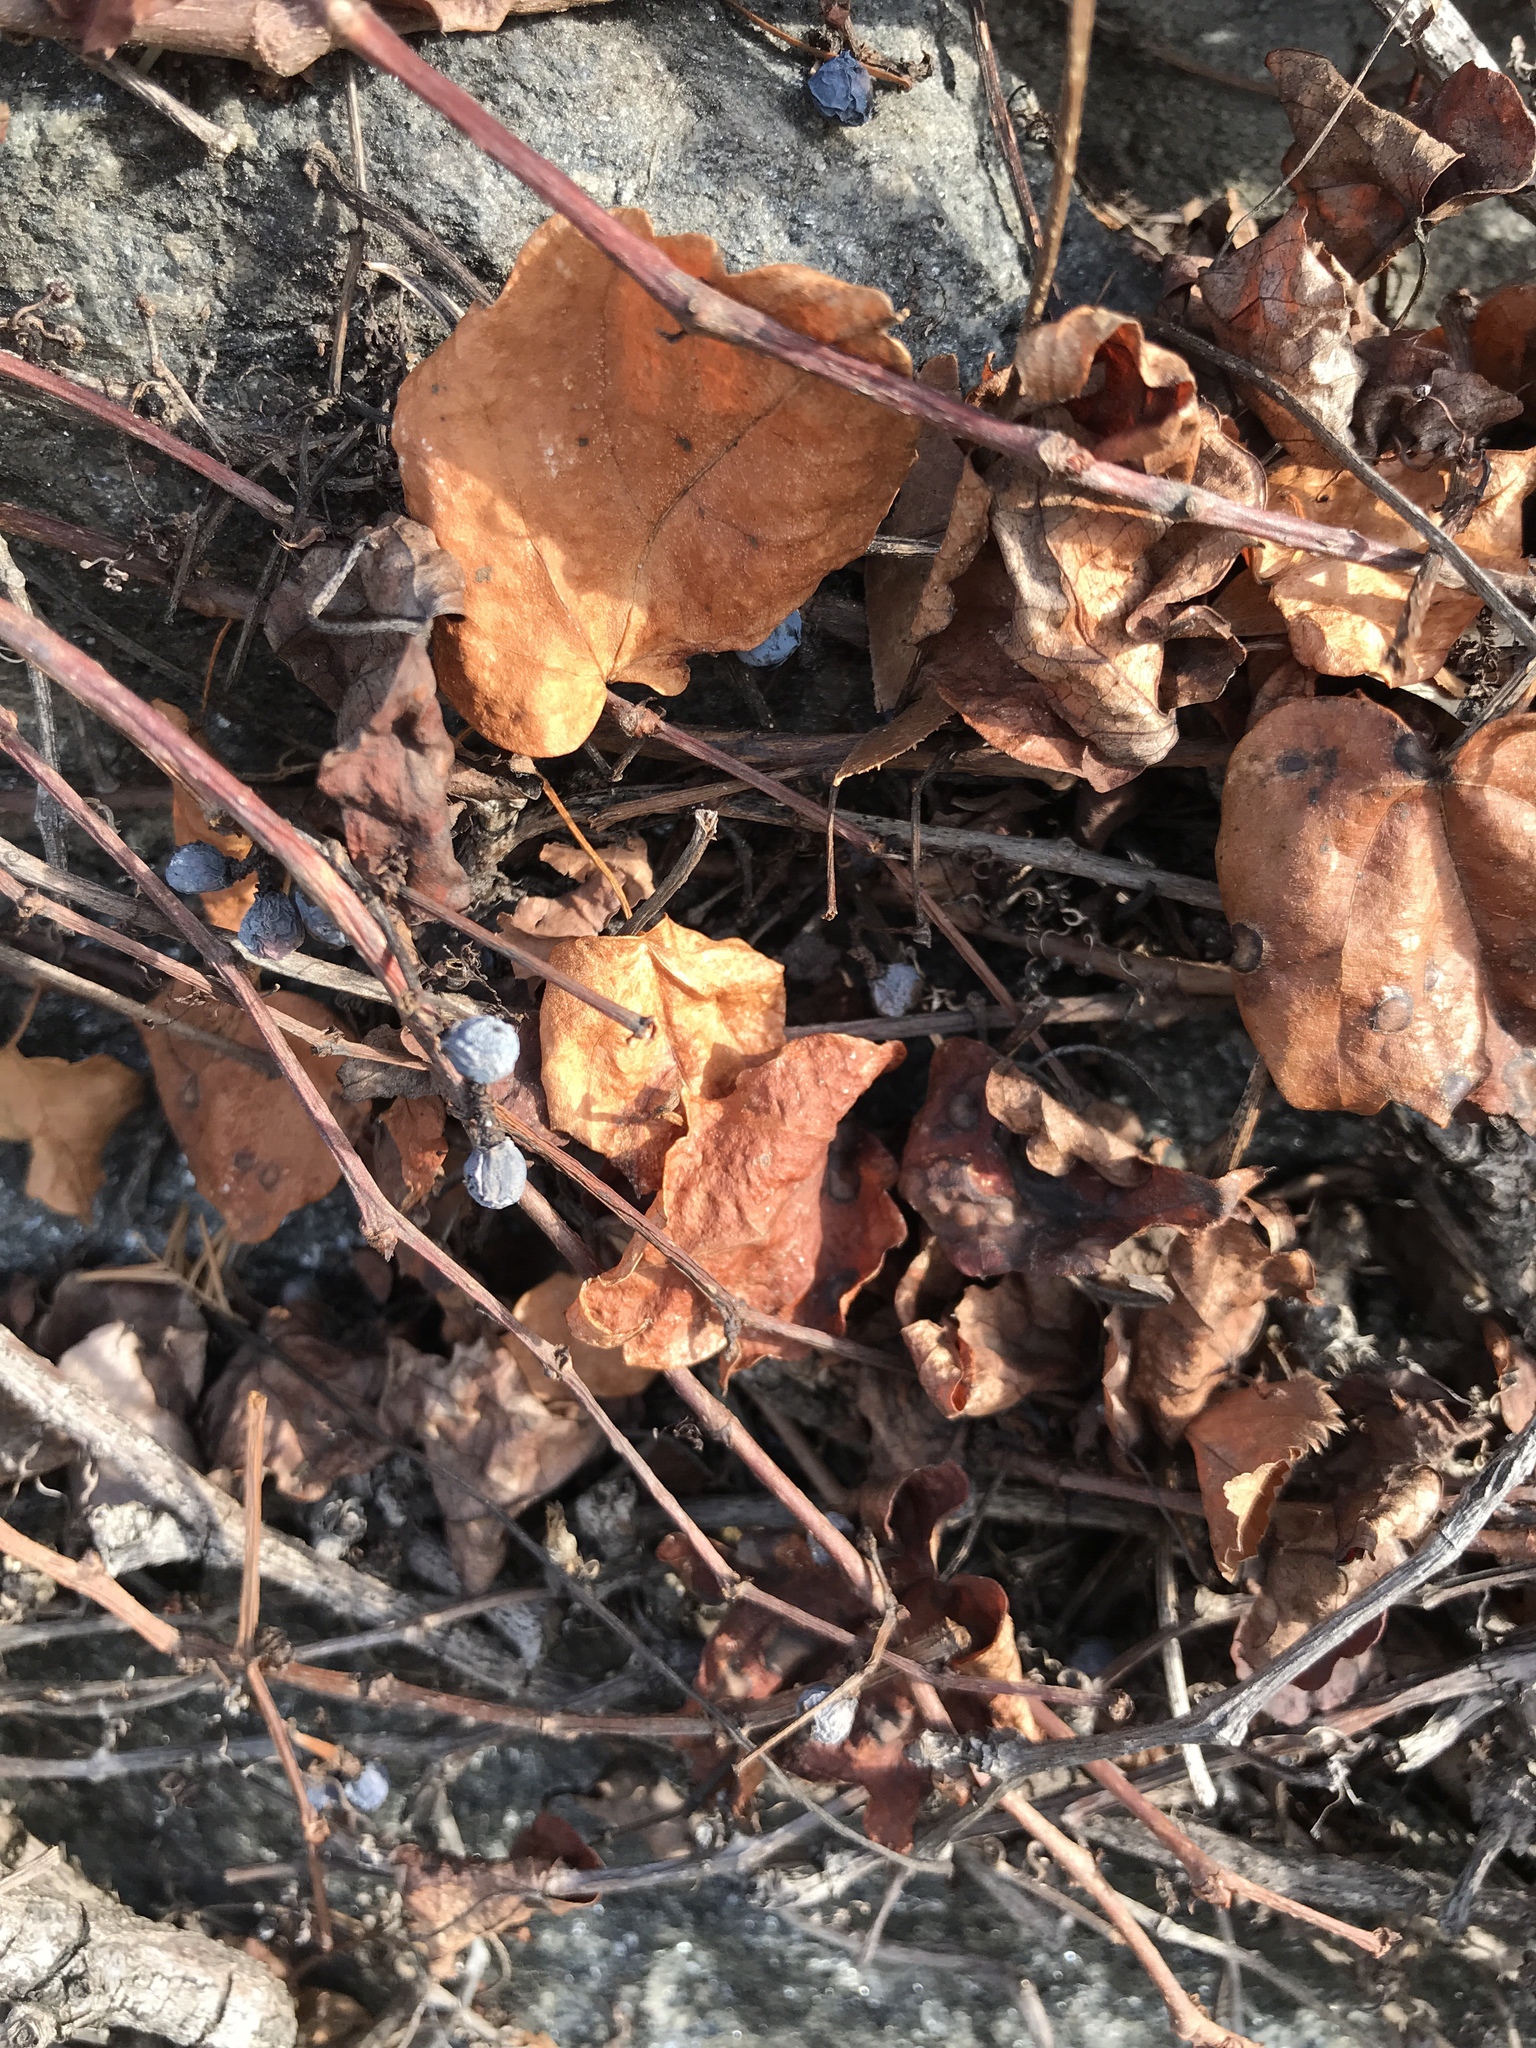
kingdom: Plantae
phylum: Tracheophyta
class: Magnoliopsida
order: Vitales
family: Vitaceae
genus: Parthenocissus
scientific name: Parthenocissus tricuspidata
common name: Boston ivy
